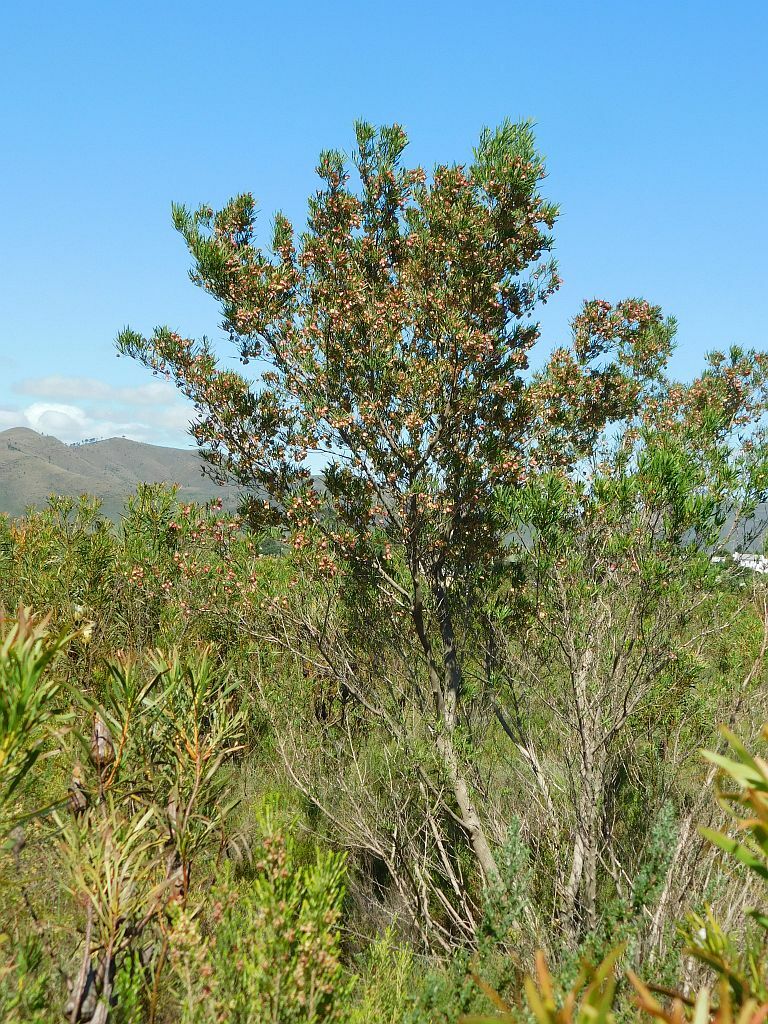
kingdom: Plantae
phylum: Tracheophyta
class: Magnoliopsida
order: Sapindales
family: Sapindaceae
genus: Dodonaea
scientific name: Dodonaea viscosa
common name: Hopbush
